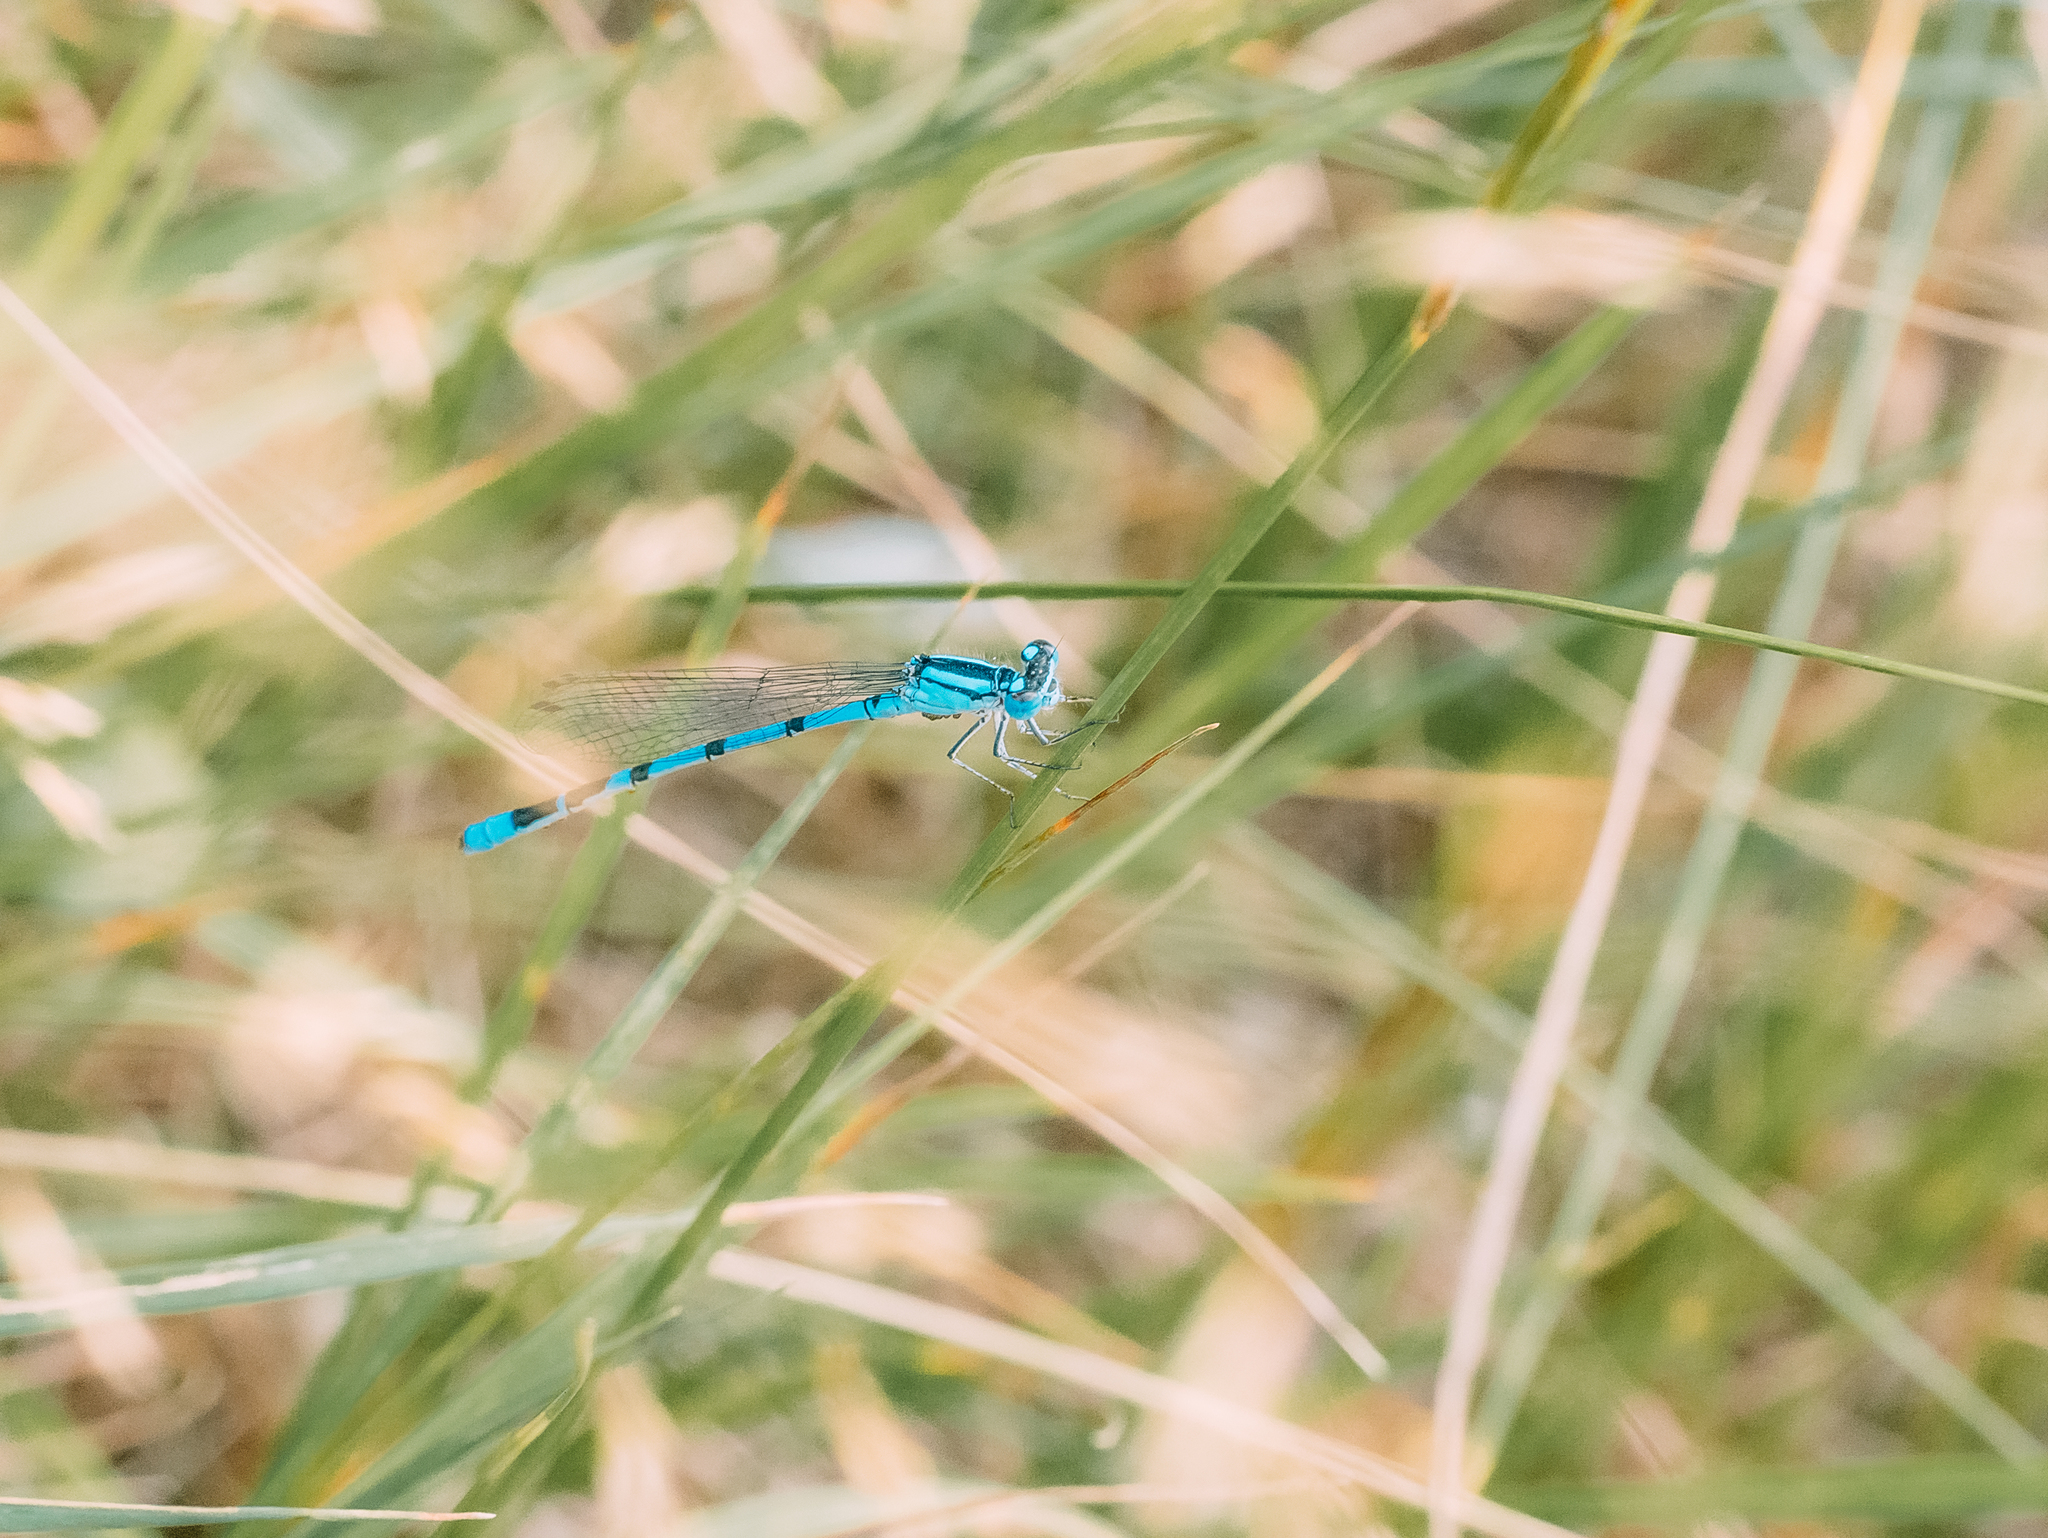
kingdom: Animalia
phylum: Arthropoda
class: Insecta
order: Odonata
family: Coenagrionidae
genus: Enallagma
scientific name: Enallagma cyathigerum
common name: Common blue damselfly
